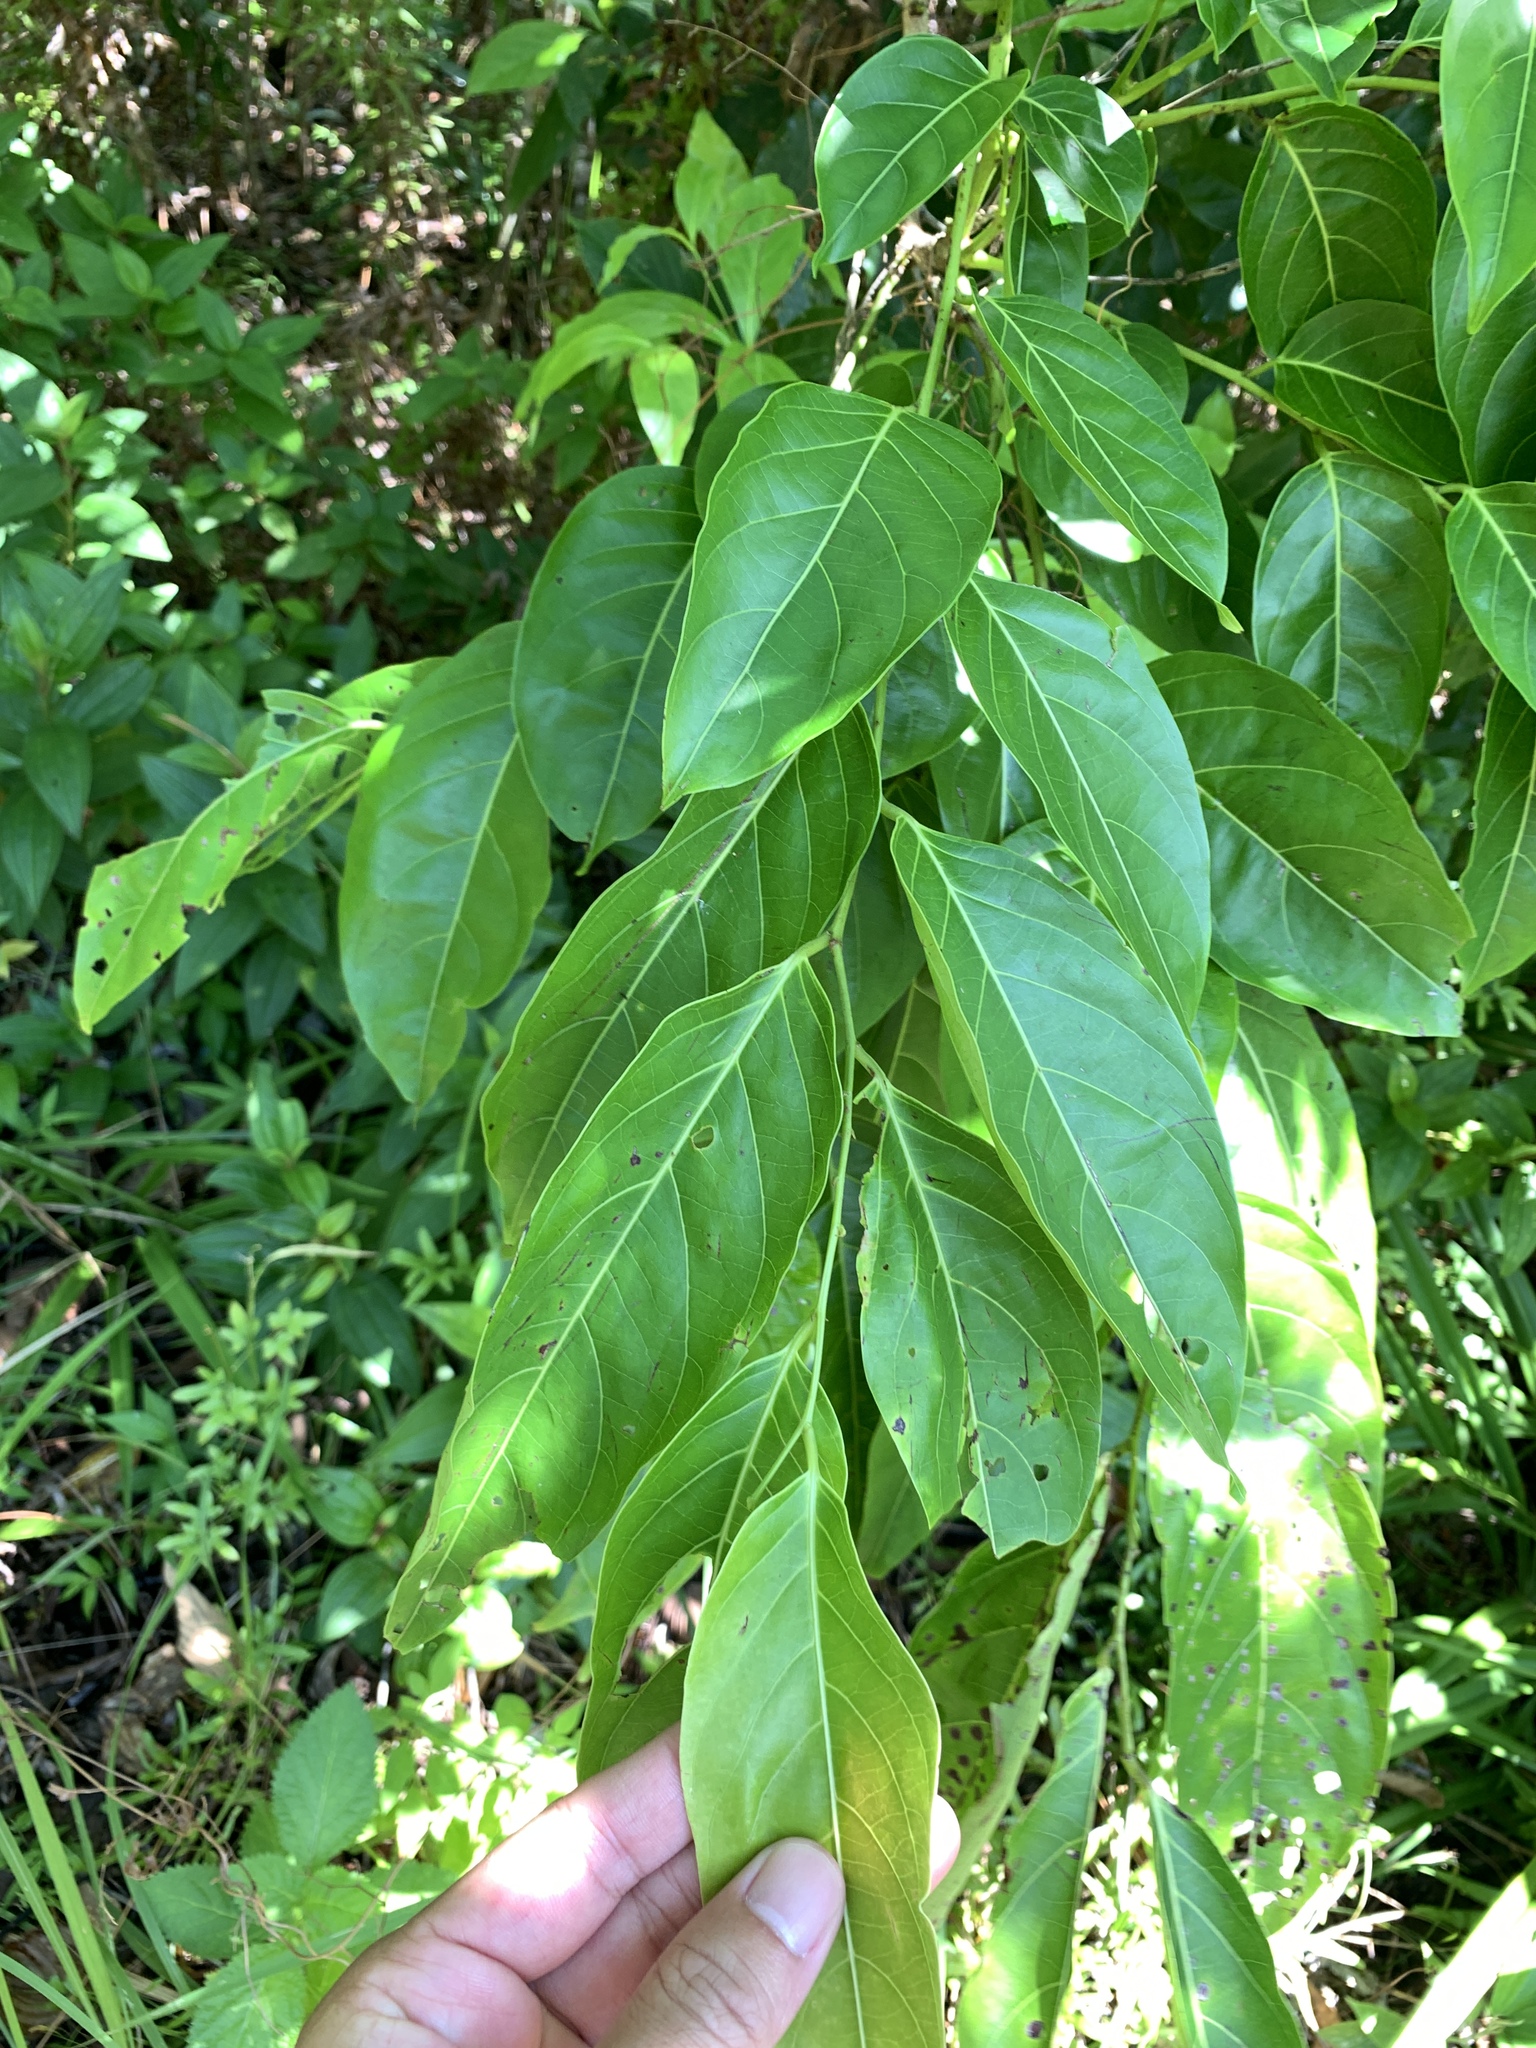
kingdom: Plantae
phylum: Tracheophyta
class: Magnoliopsida
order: Malpighiales
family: Phyllanthaceae
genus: Glochidion
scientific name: Glochidion zeylanicum
